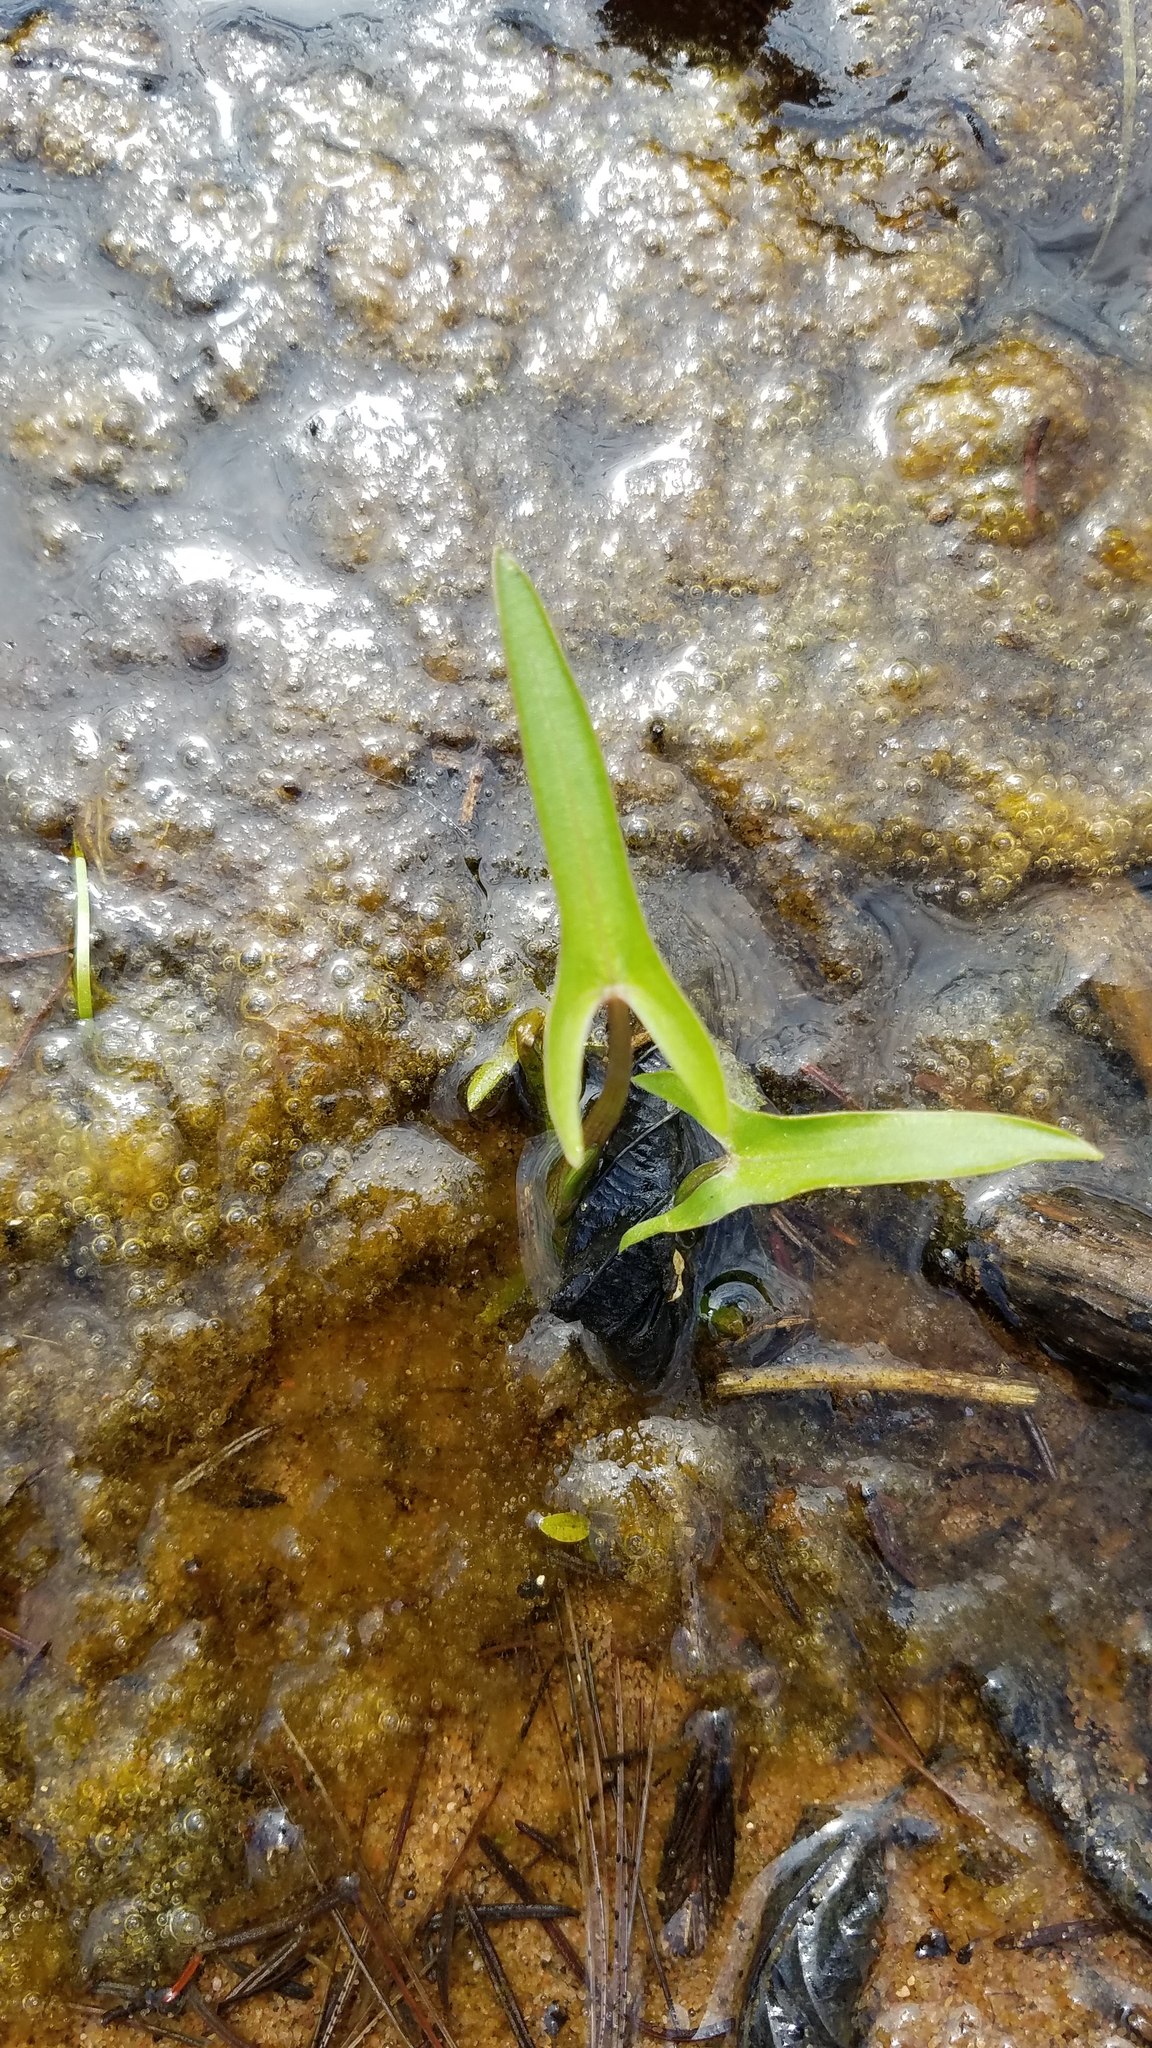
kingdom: Plantae
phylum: Tracheophyta
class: Liliopsida
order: Alismatales
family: Alismataceae
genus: Sagittaria
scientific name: Sagittaria latifolia
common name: Duck-potato
